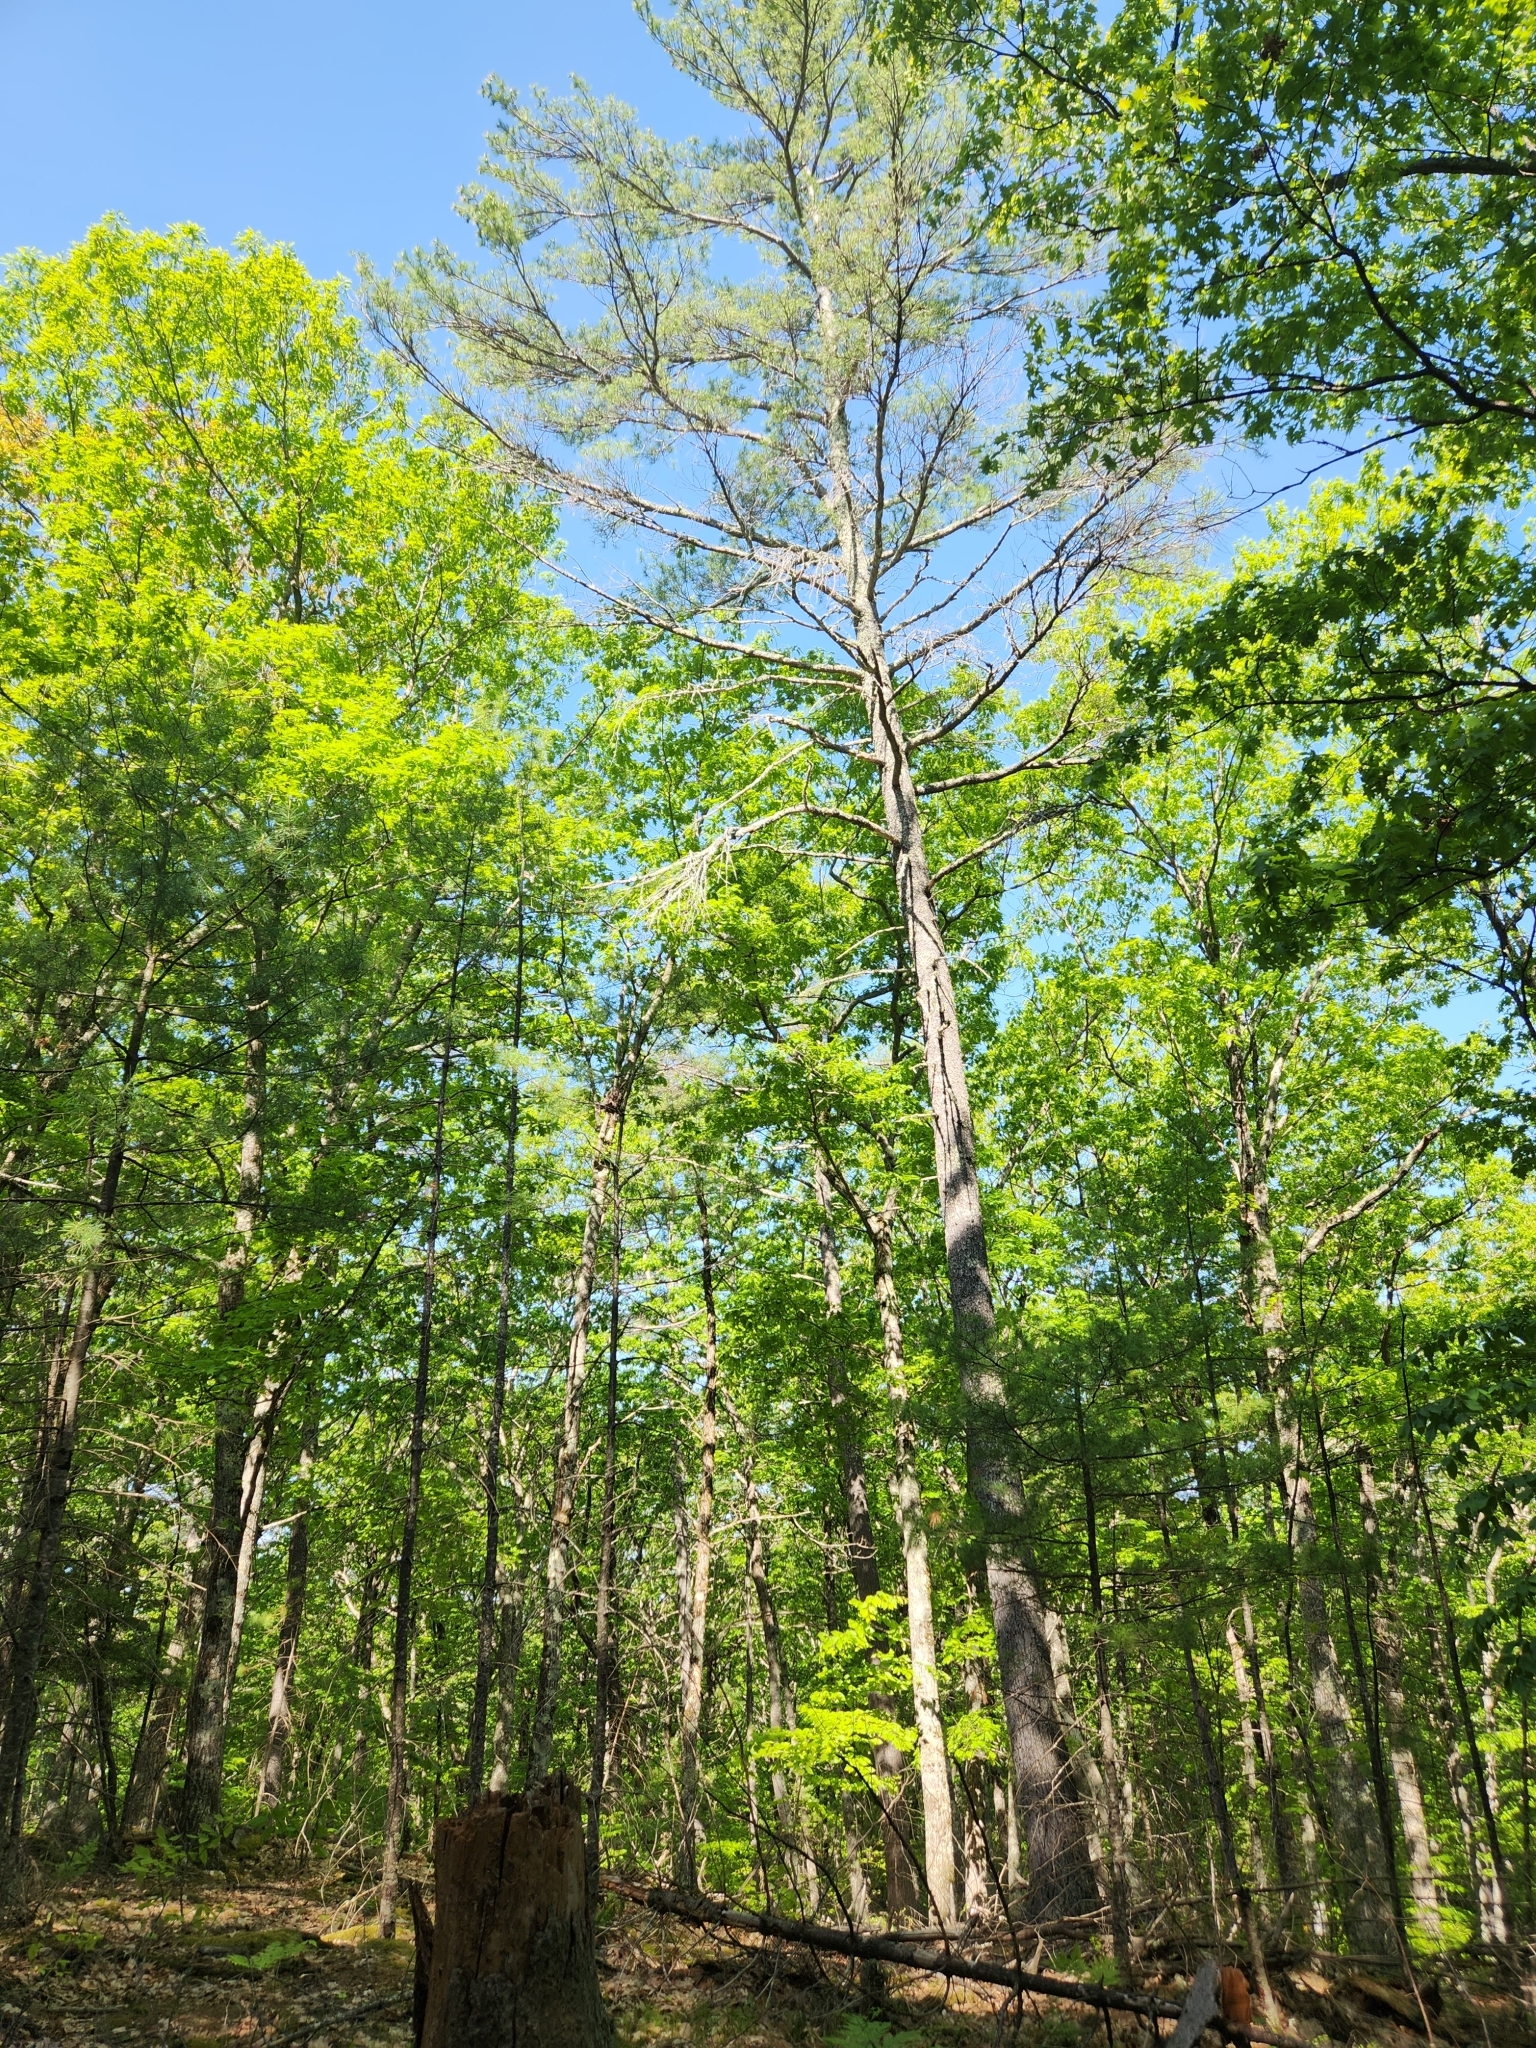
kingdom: Plantae
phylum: Tracheophyta
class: Pinopsida
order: Pinales
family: Pinaceae
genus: Pinus
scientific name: Pinus strobus
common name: Weymouth pine
